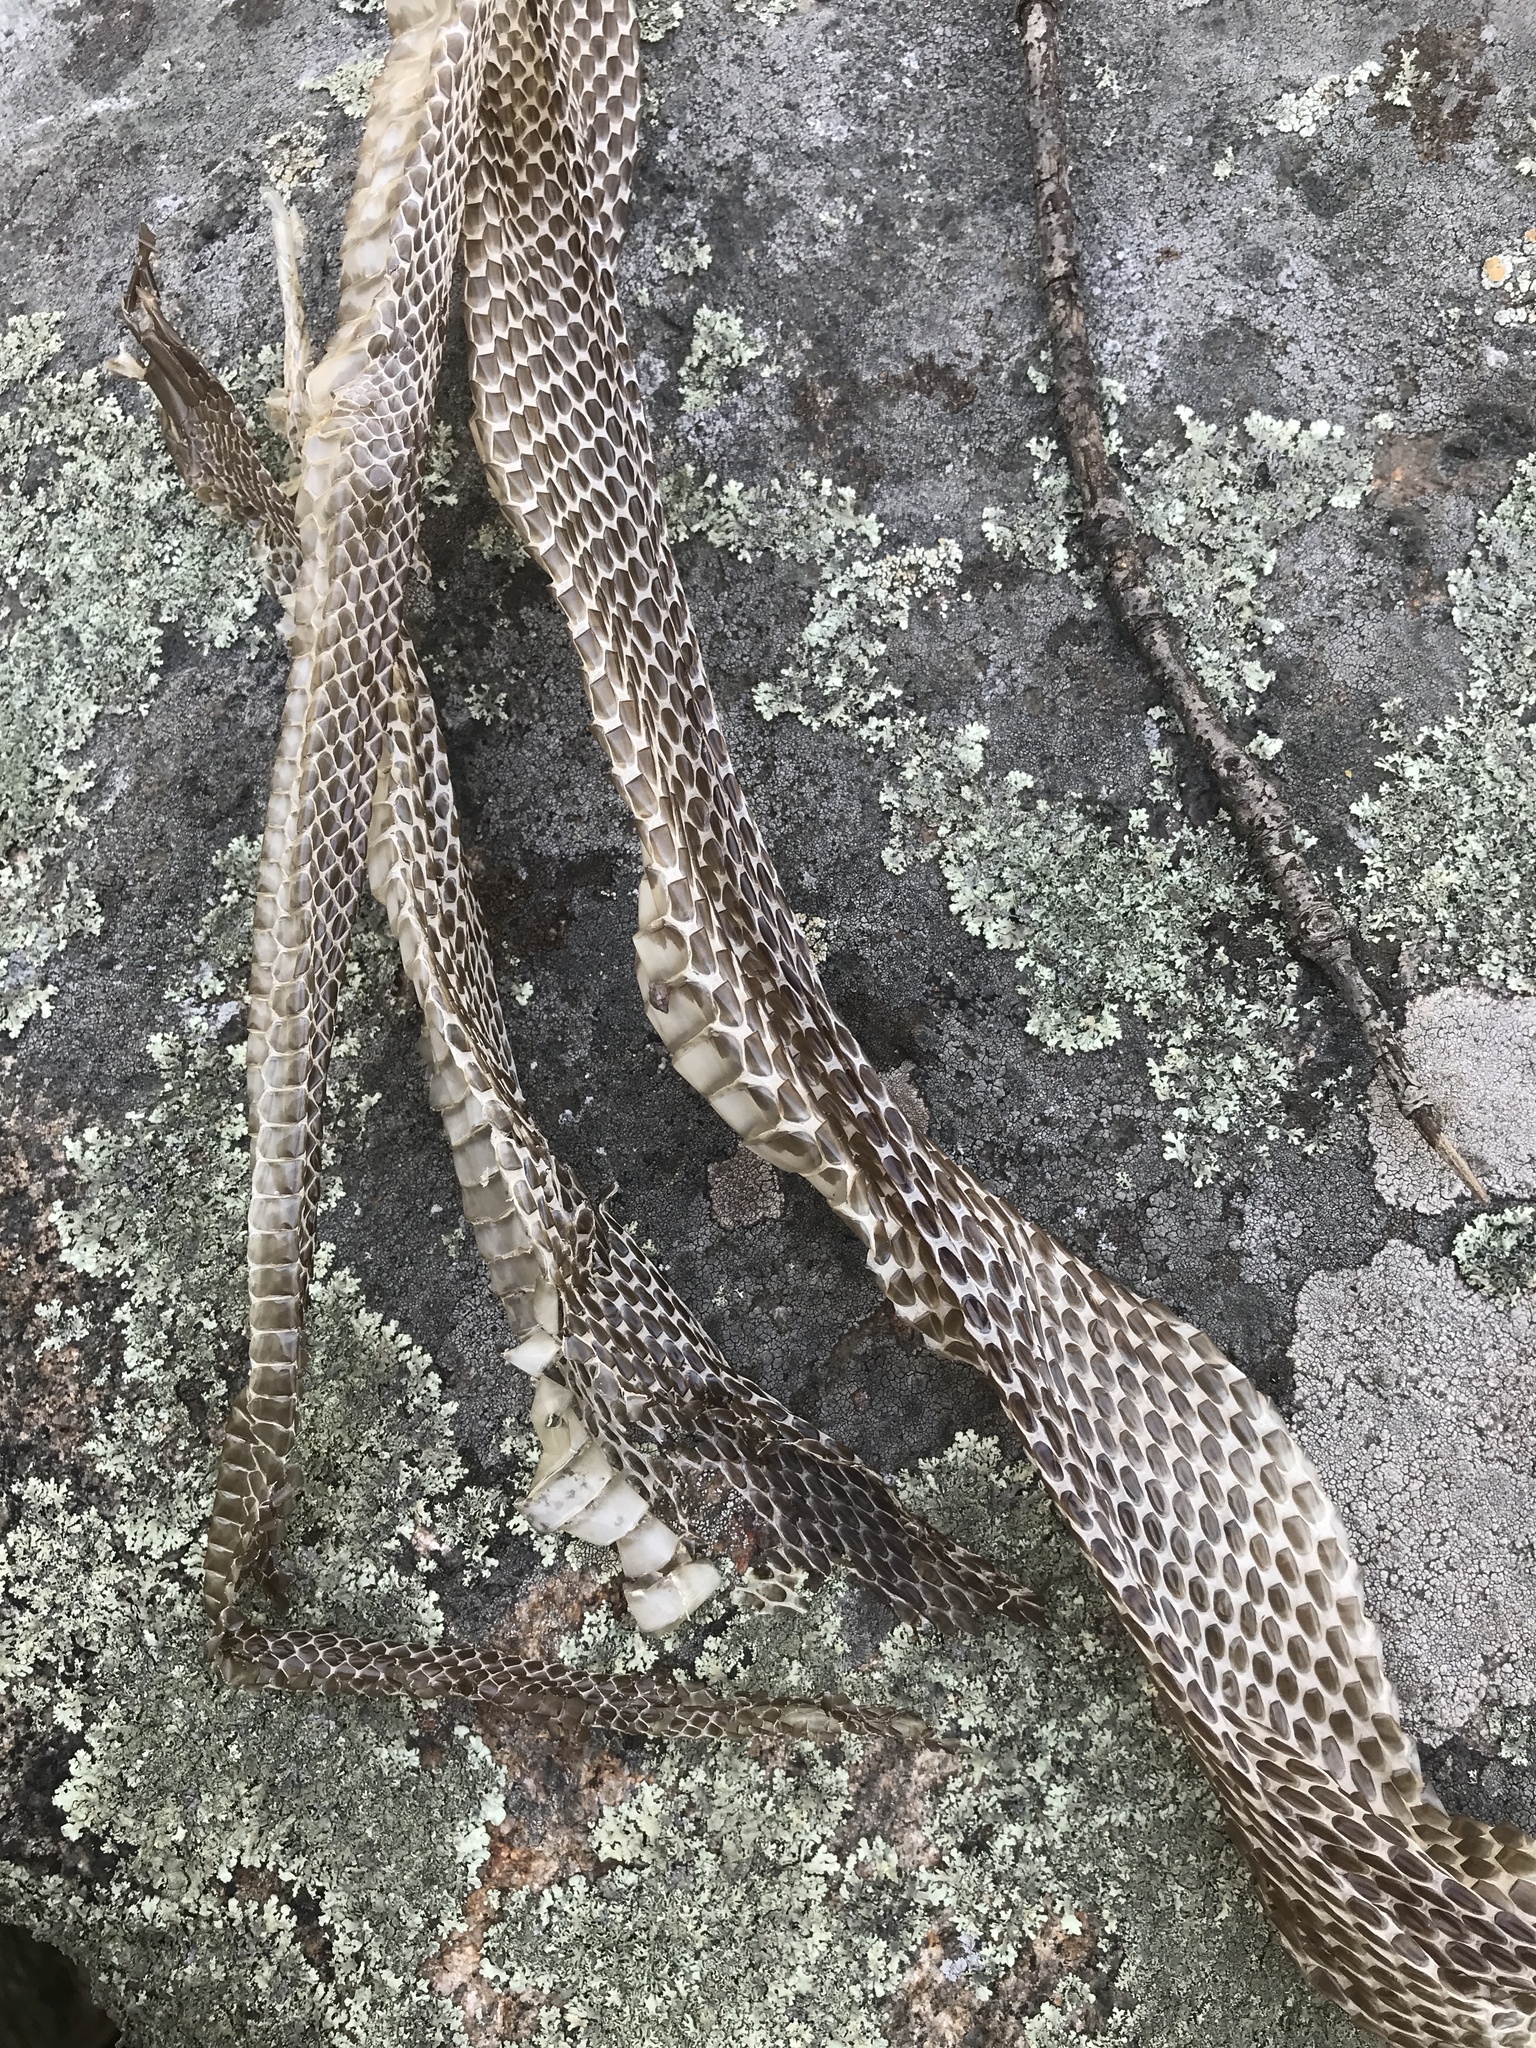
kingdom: Animalia
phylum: Chordata
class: Squamata
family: Colubridae
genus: Pantherophis
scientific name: Pantherophis
